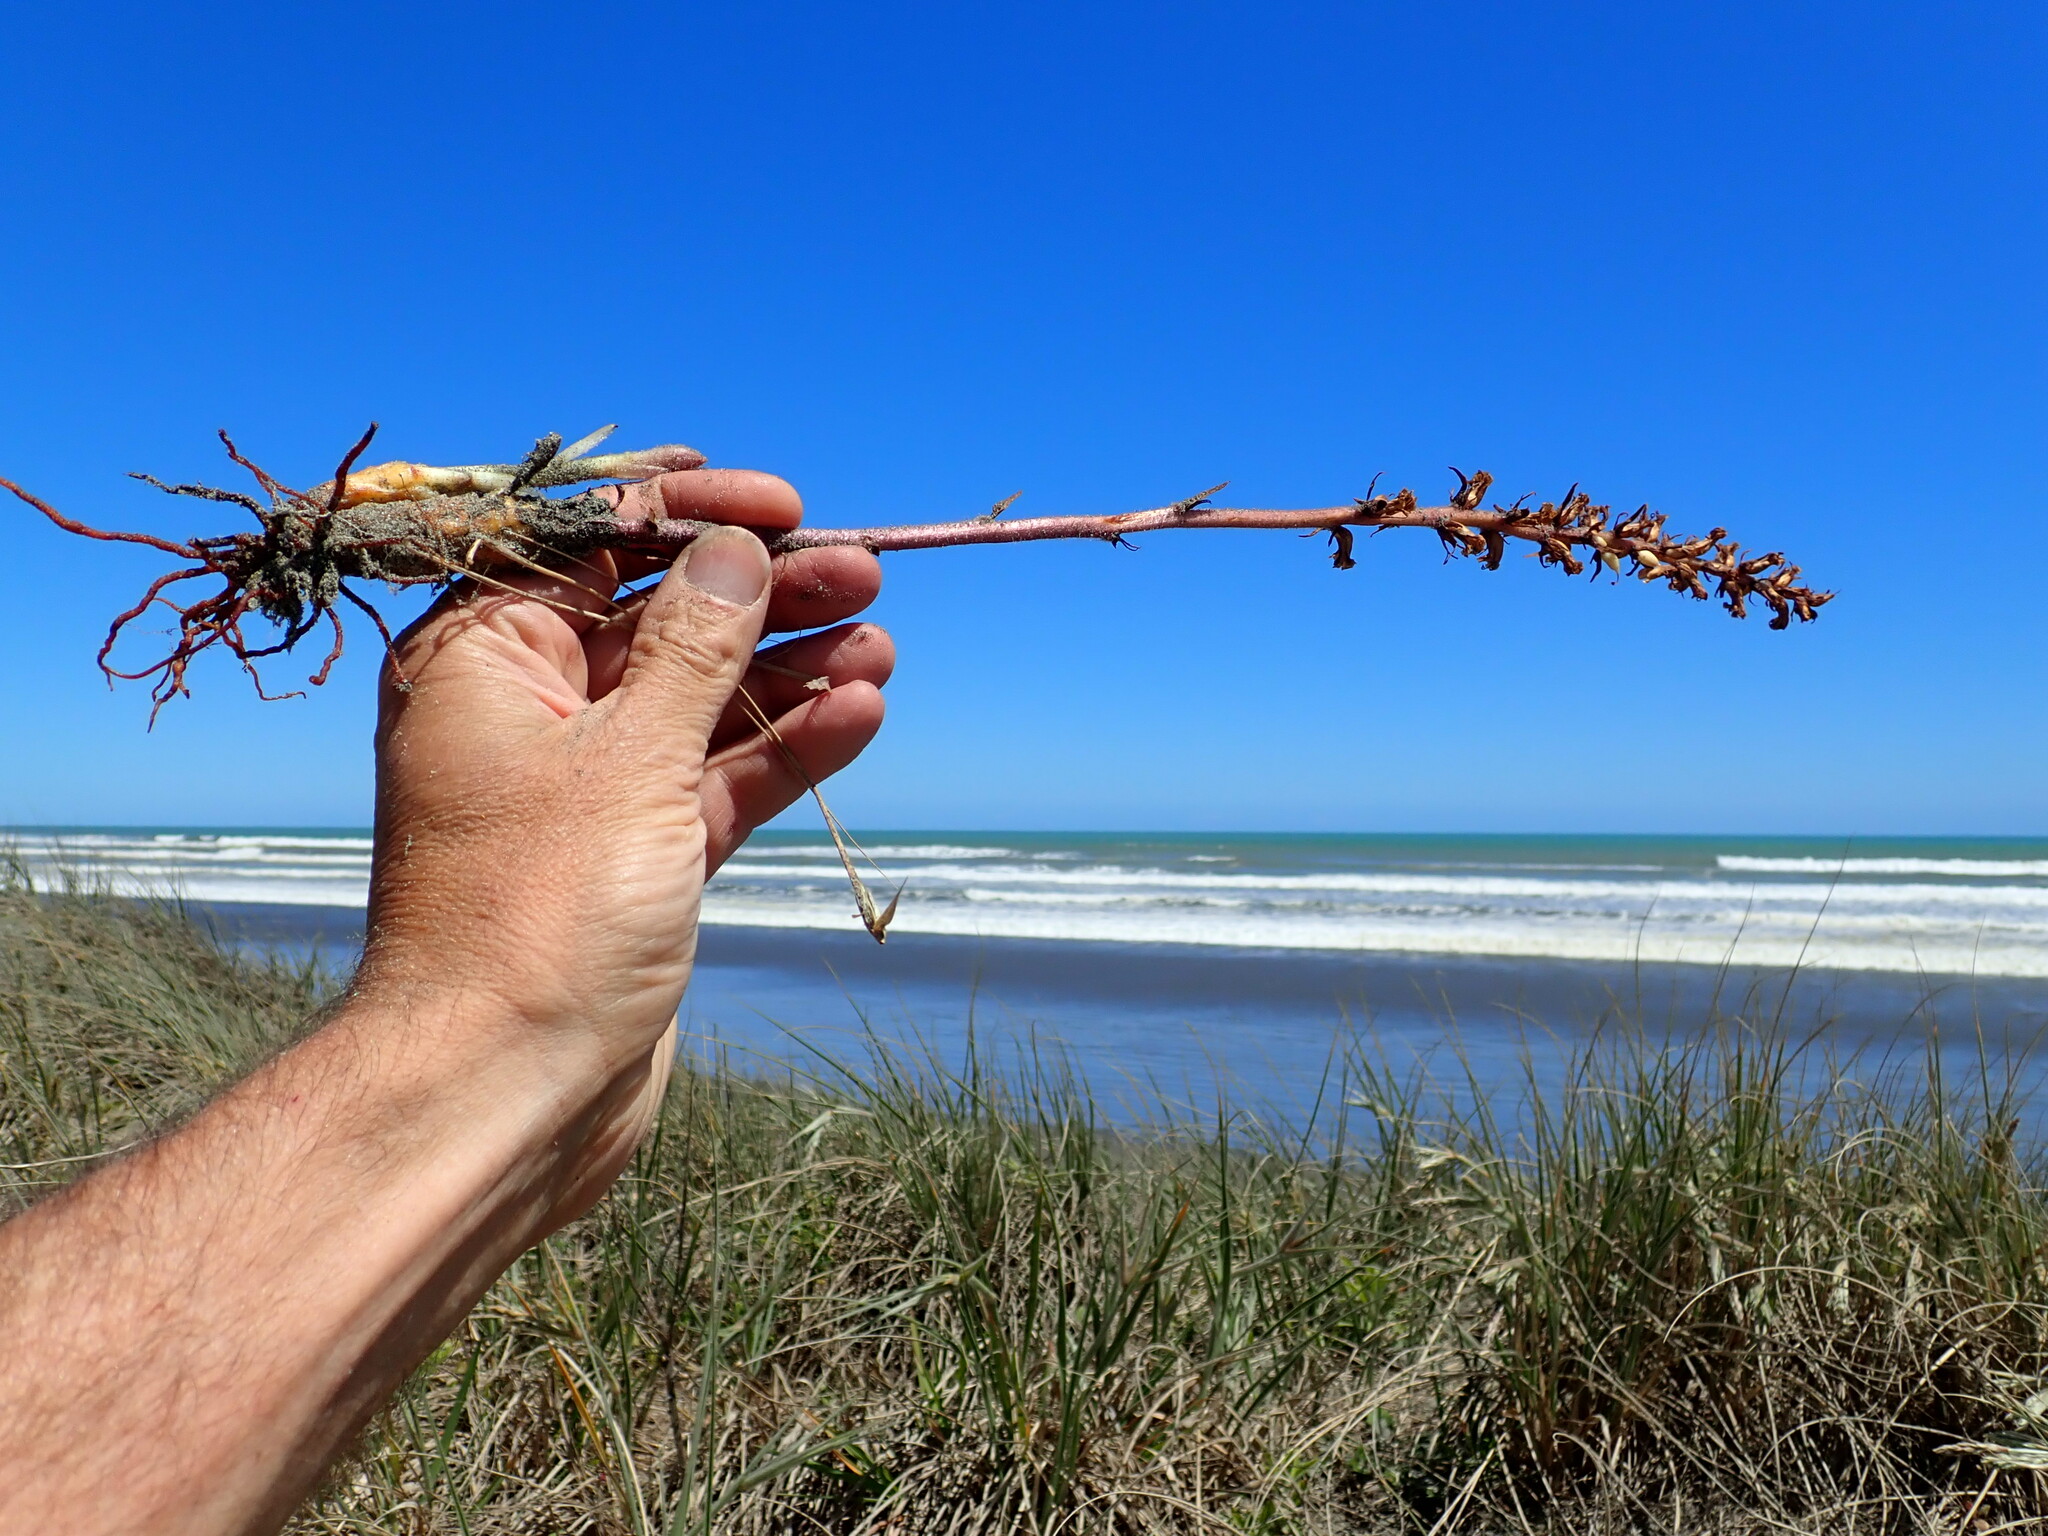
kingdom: Plantae
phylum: Tracheophyta
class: Magnoliopsida
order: Lamiales
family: Orobanchaceae
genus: Orobanche
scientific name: Orobanche minor
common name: Common broomrape
